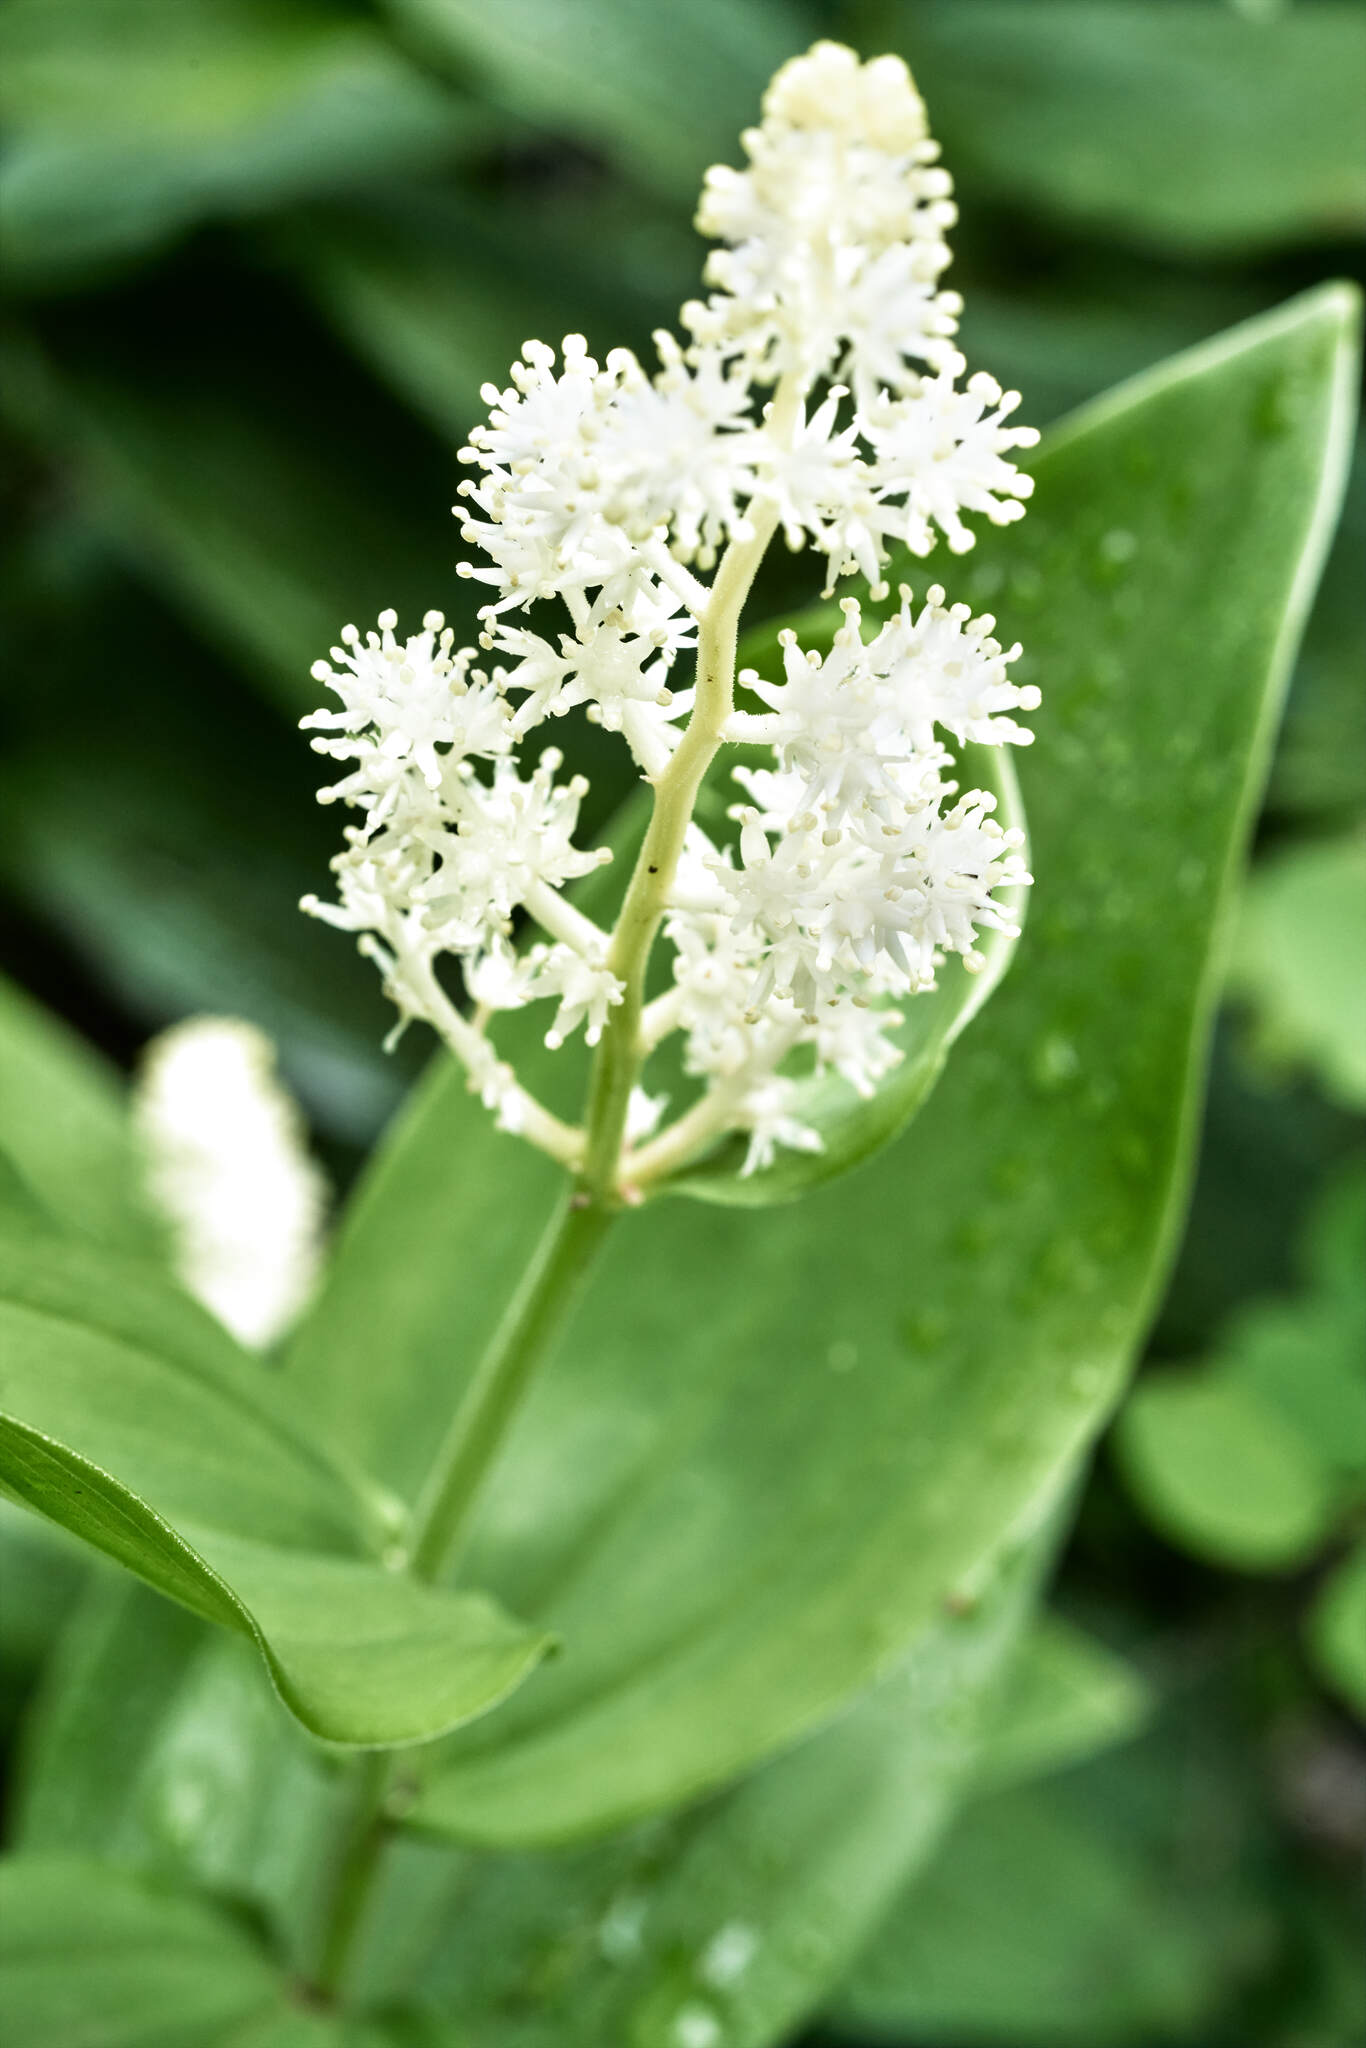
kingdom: Plantae
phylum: Tracheophyta
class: Liliopsida
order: Asparagales
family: Asparagaceae
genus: Maianthemum
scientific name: Maianthemum racemosum
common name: False spikenard
